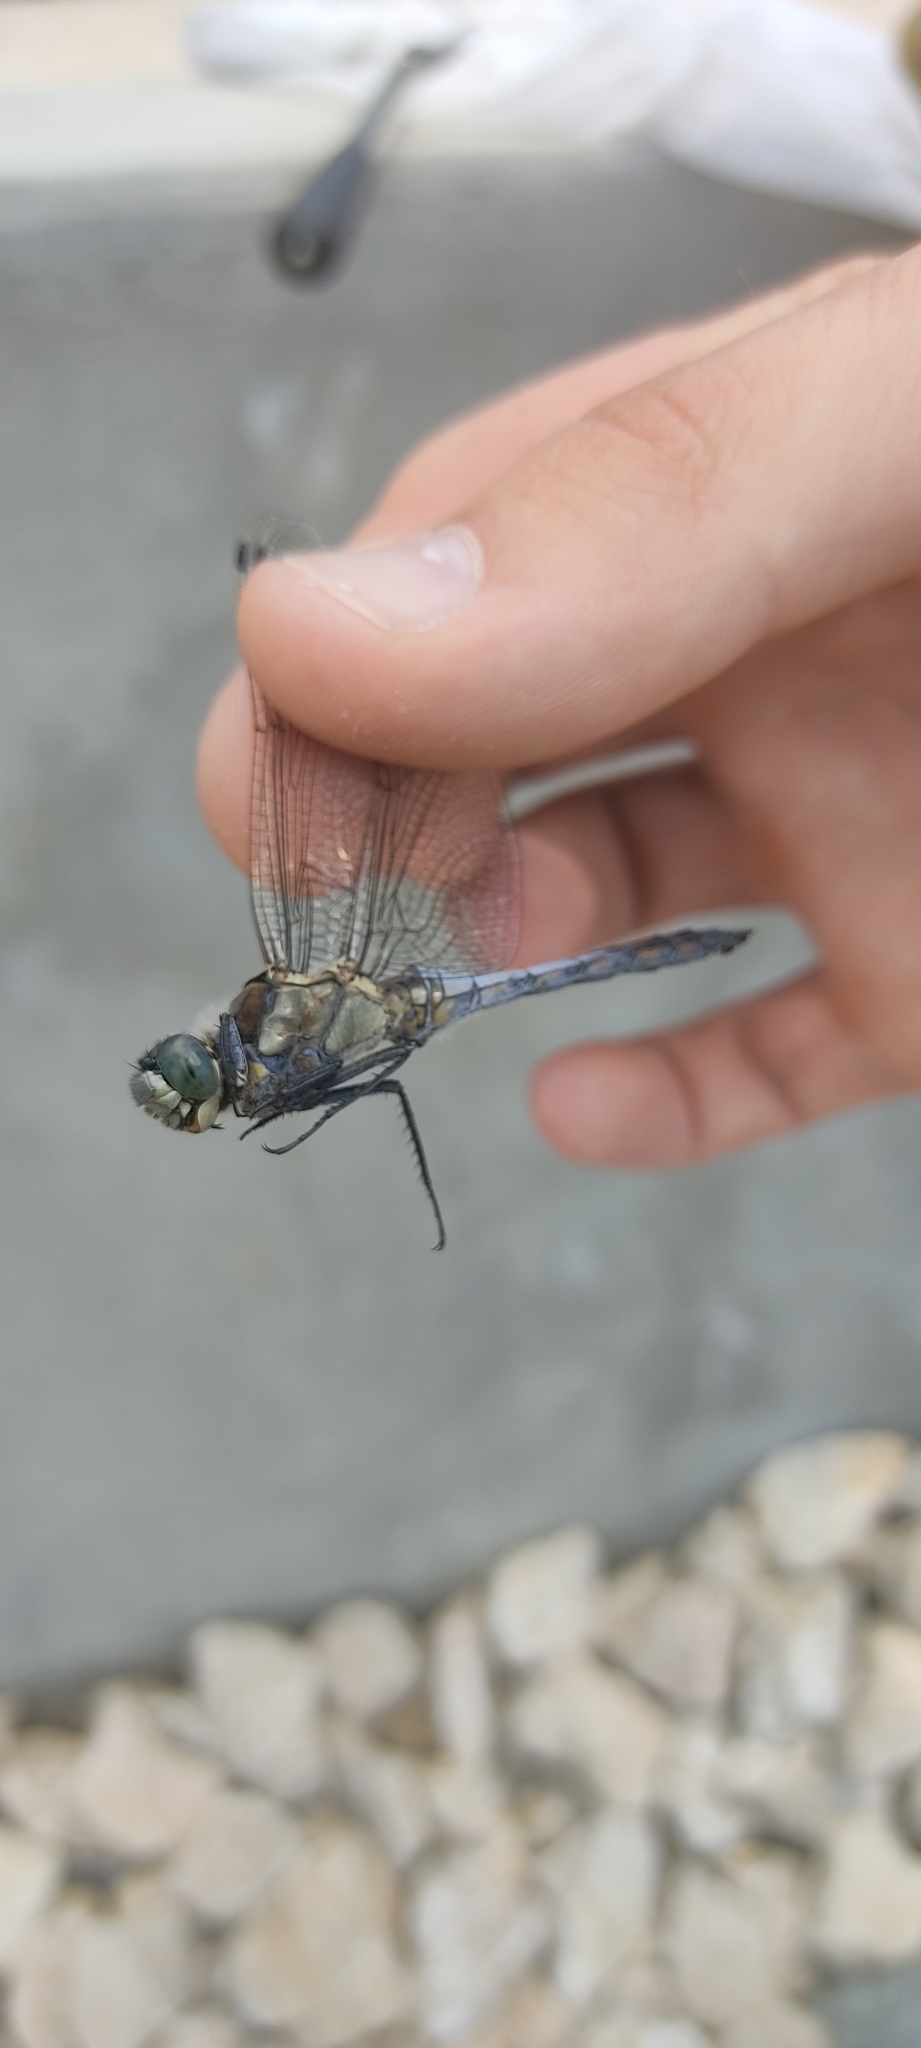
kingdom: Animalia
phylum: Arthropoda
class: Insecta
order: Odonata
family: Libellulidae
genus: Orthetrum
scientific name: Orthetrum cancellatum
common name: Black-tailed skimmer
